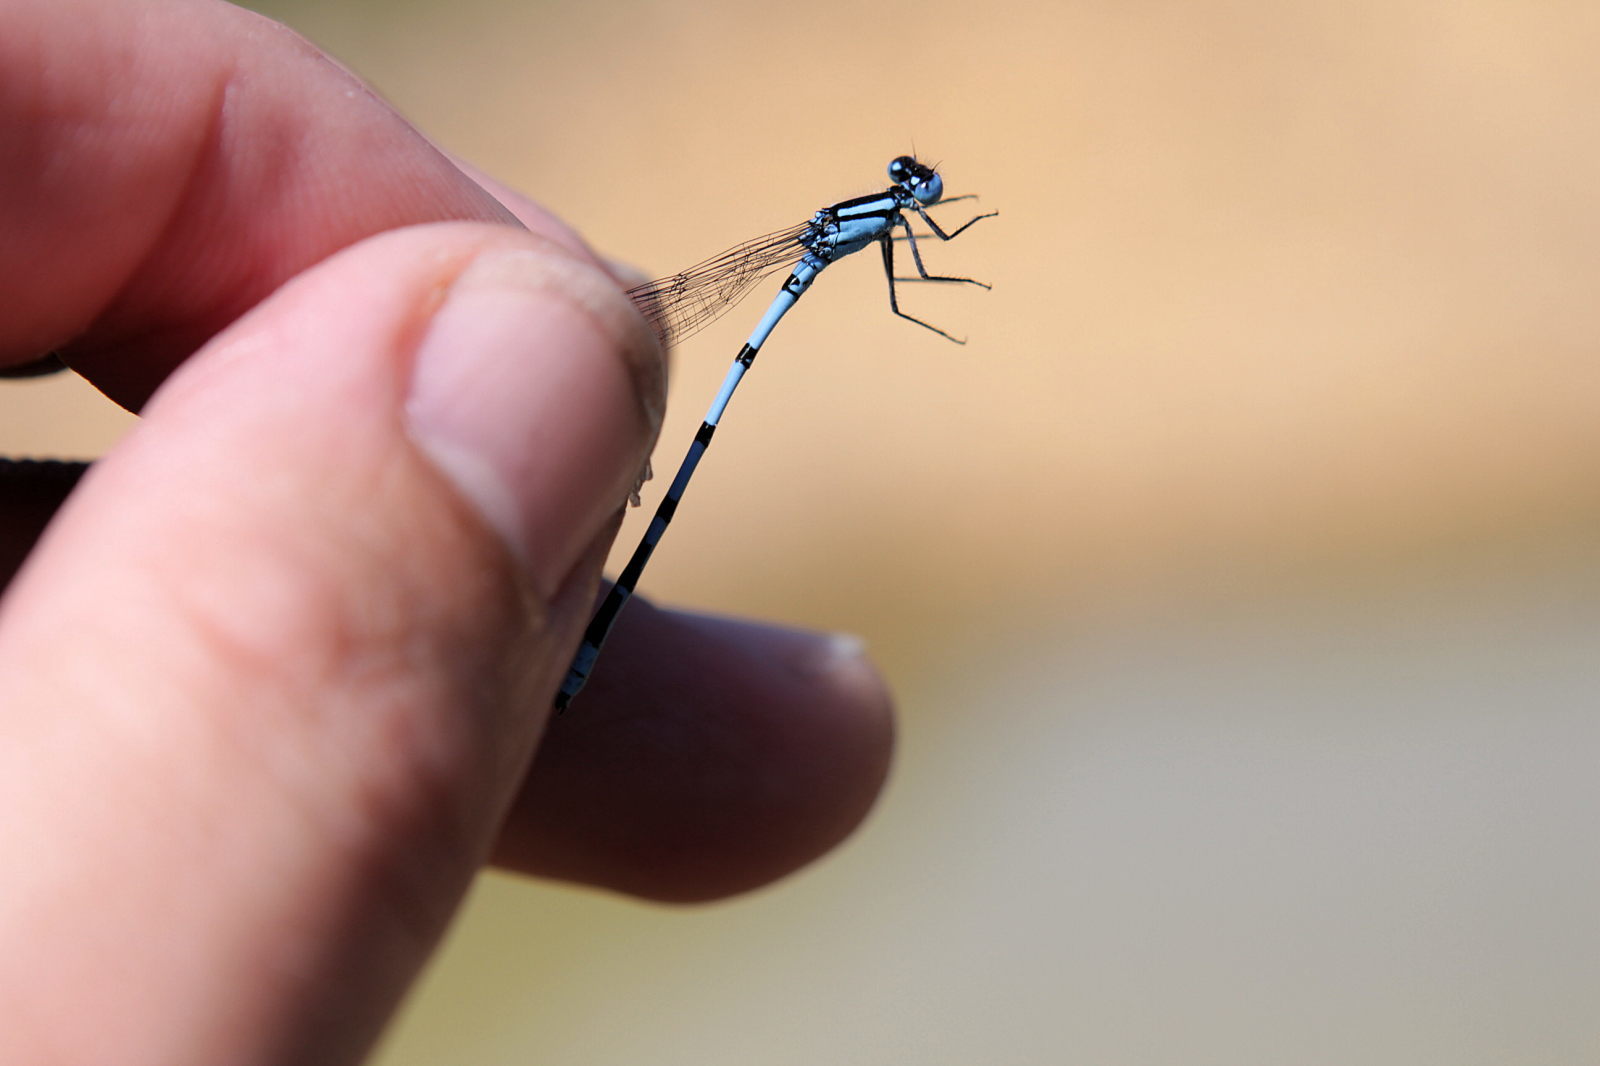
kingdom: Animalia
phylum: Arthropoda
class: Insecta
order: Odonata
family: Coenagrionidae
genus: Enallagma
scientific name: Enallagma cyathigerum
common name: Common blue damselfly
